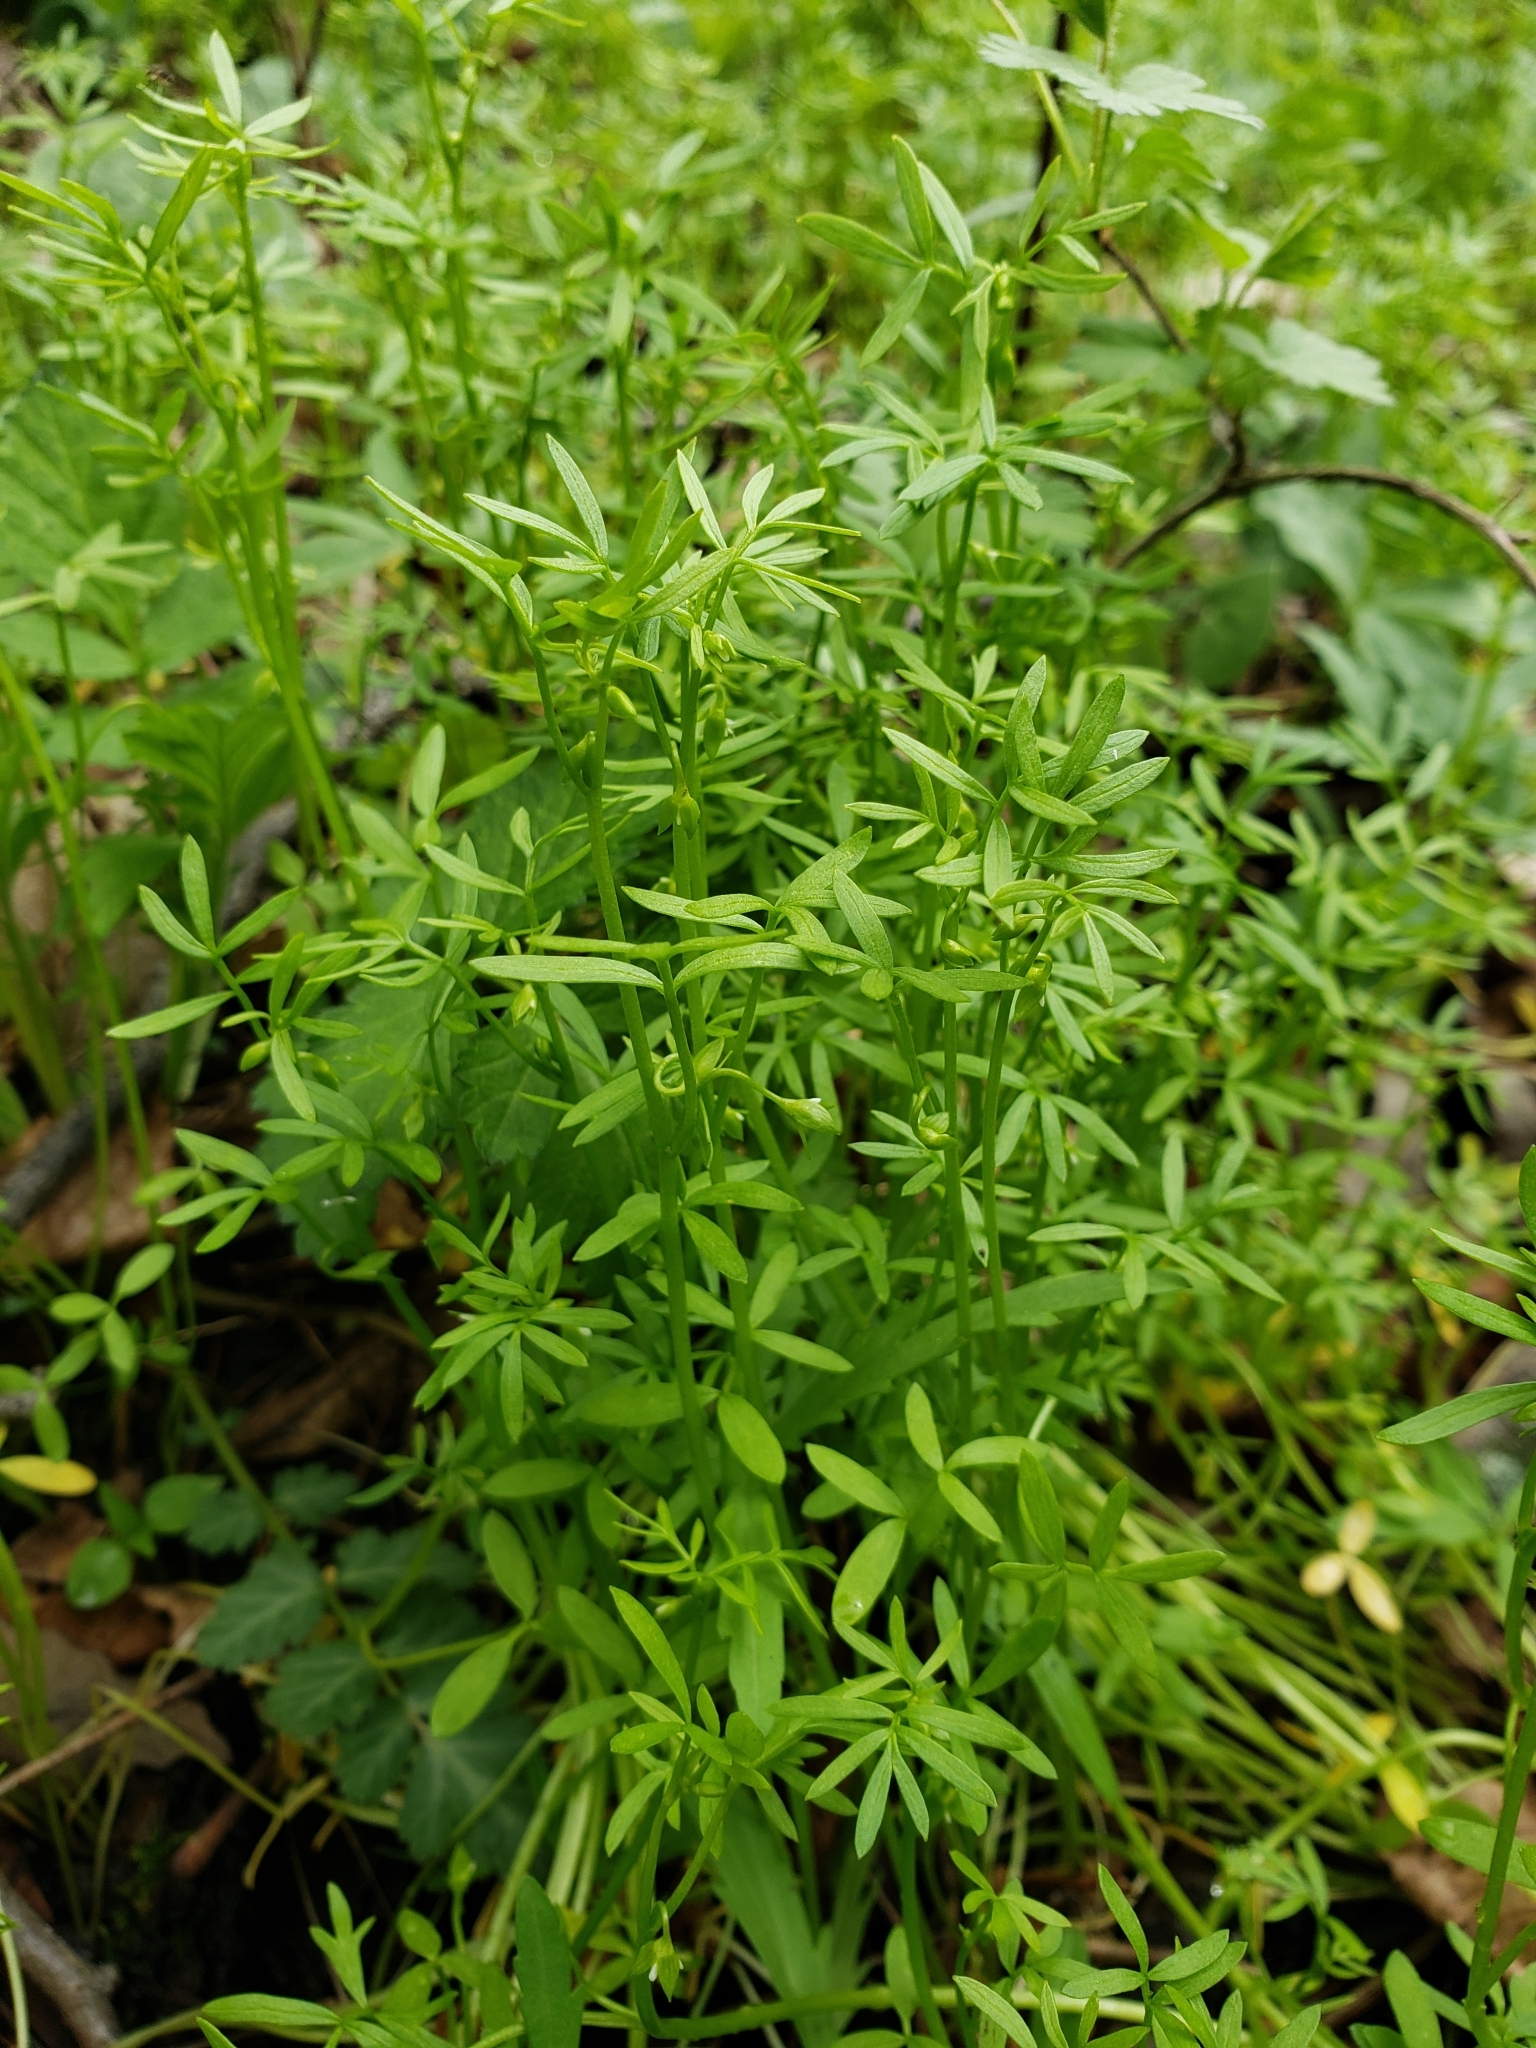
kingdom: Plantae
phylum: Tracheophyta
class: Magnoliopsida
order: Brassicales
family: Limnanthaceae
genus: Floerkea
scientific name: Floerkea proserpinacoides
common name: False mermaid
